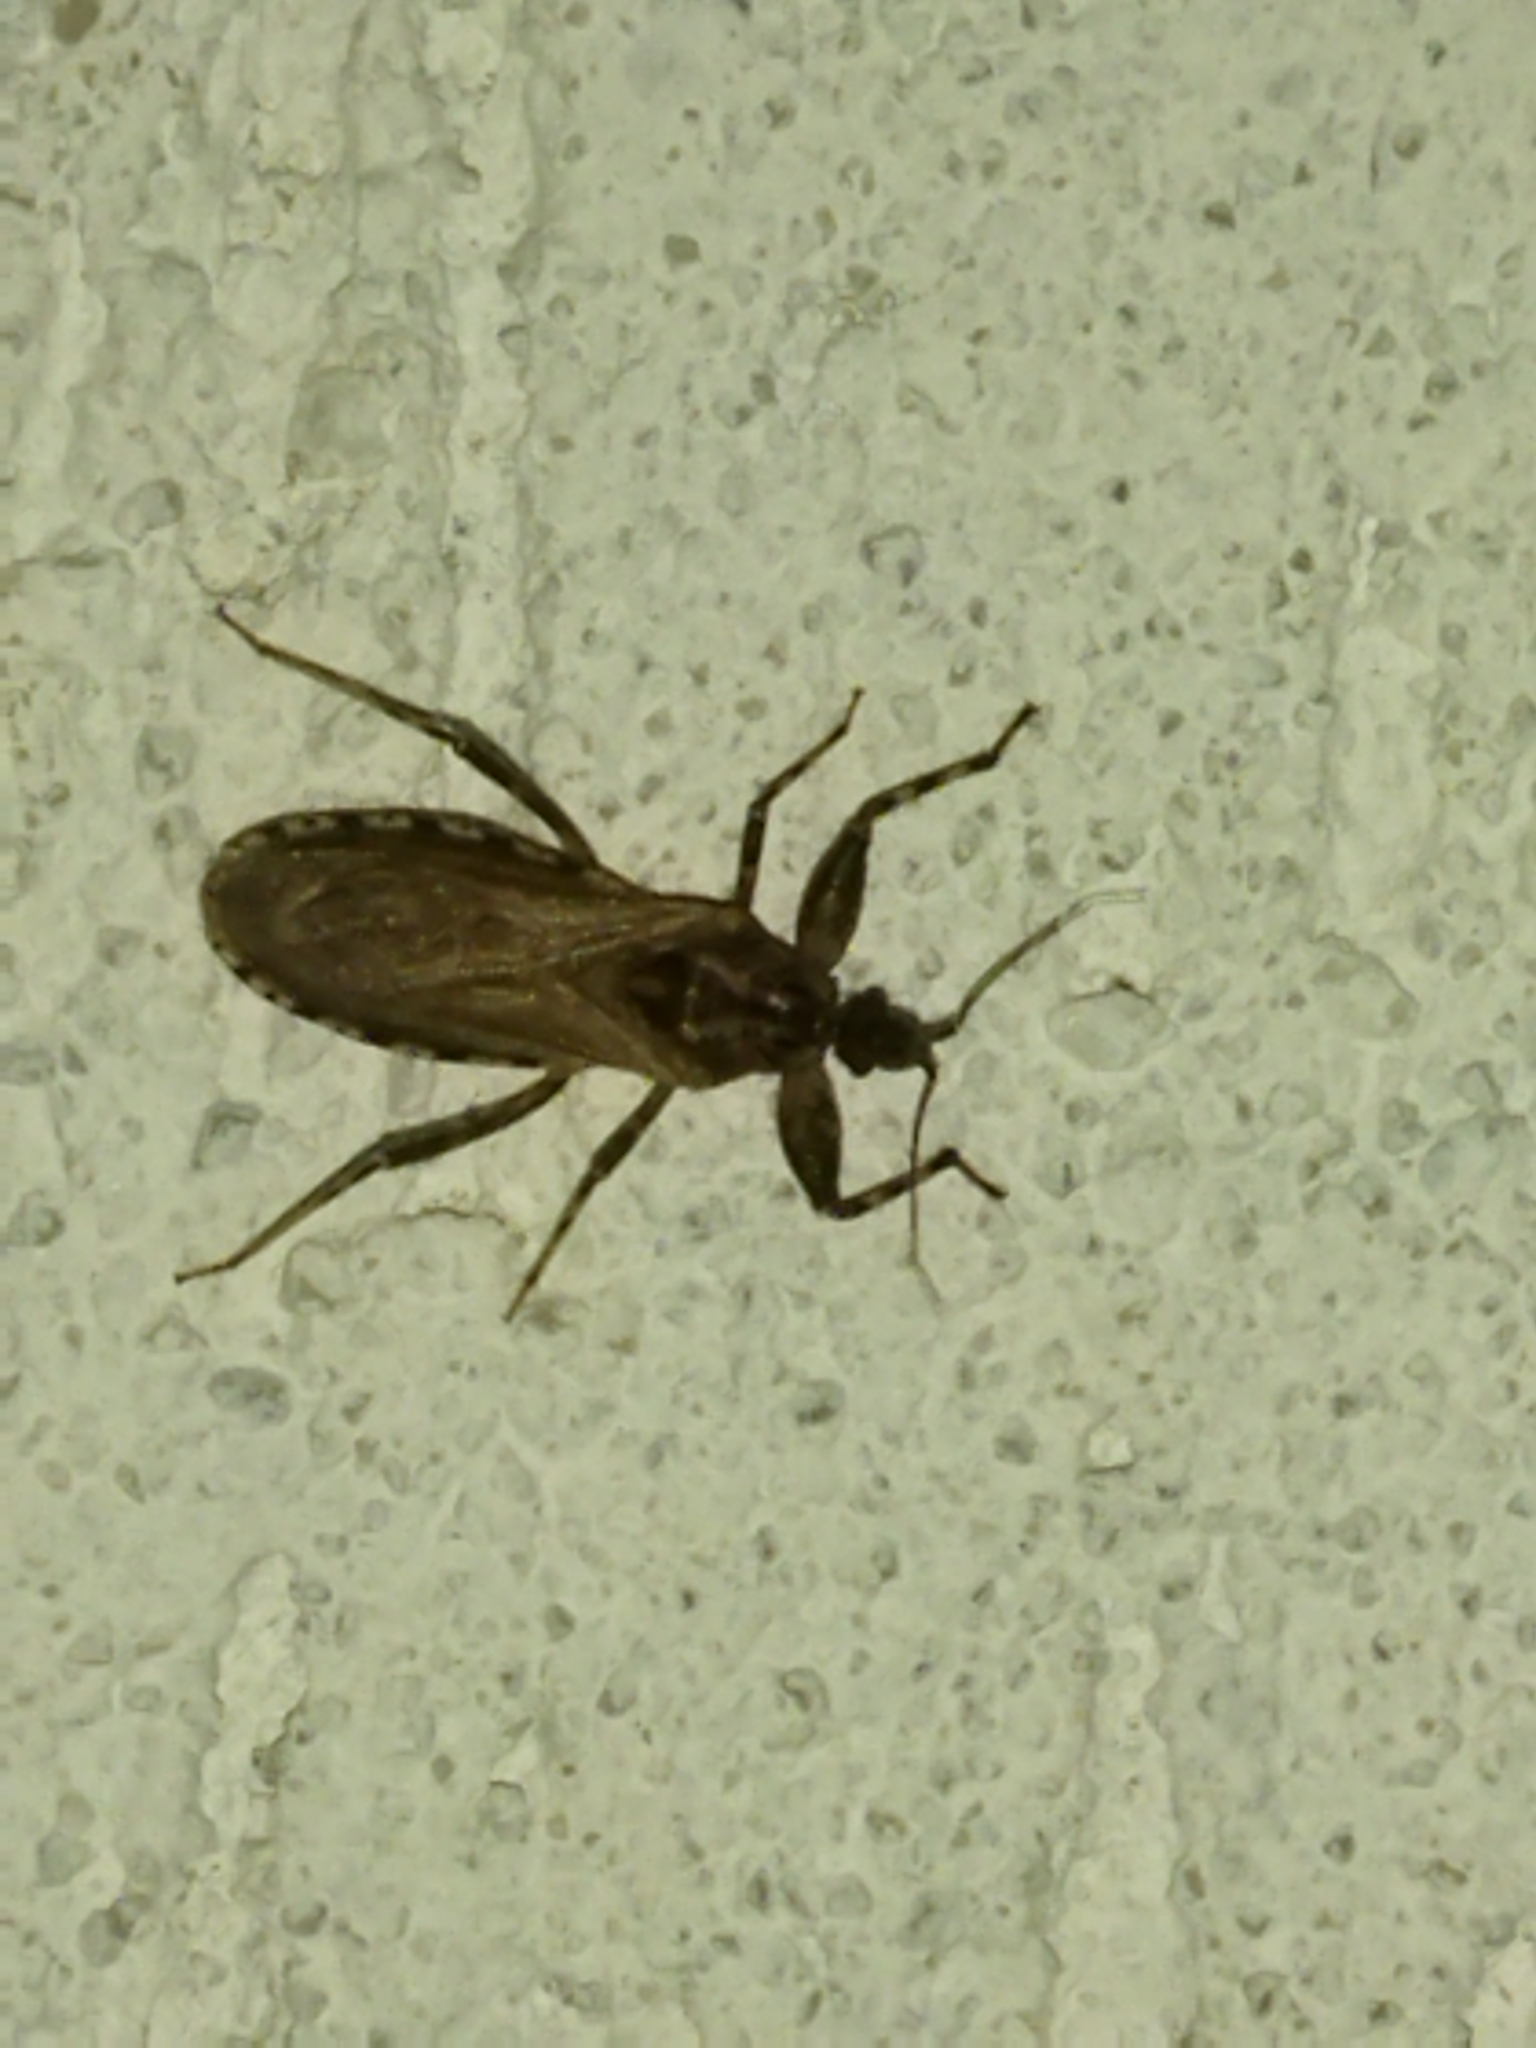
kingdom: Animalia
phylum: Arthropoda
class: Insecta
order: Hemiptera
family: Reduviidae
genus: Oncocephalus
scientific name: Oncocephalus squalidus
